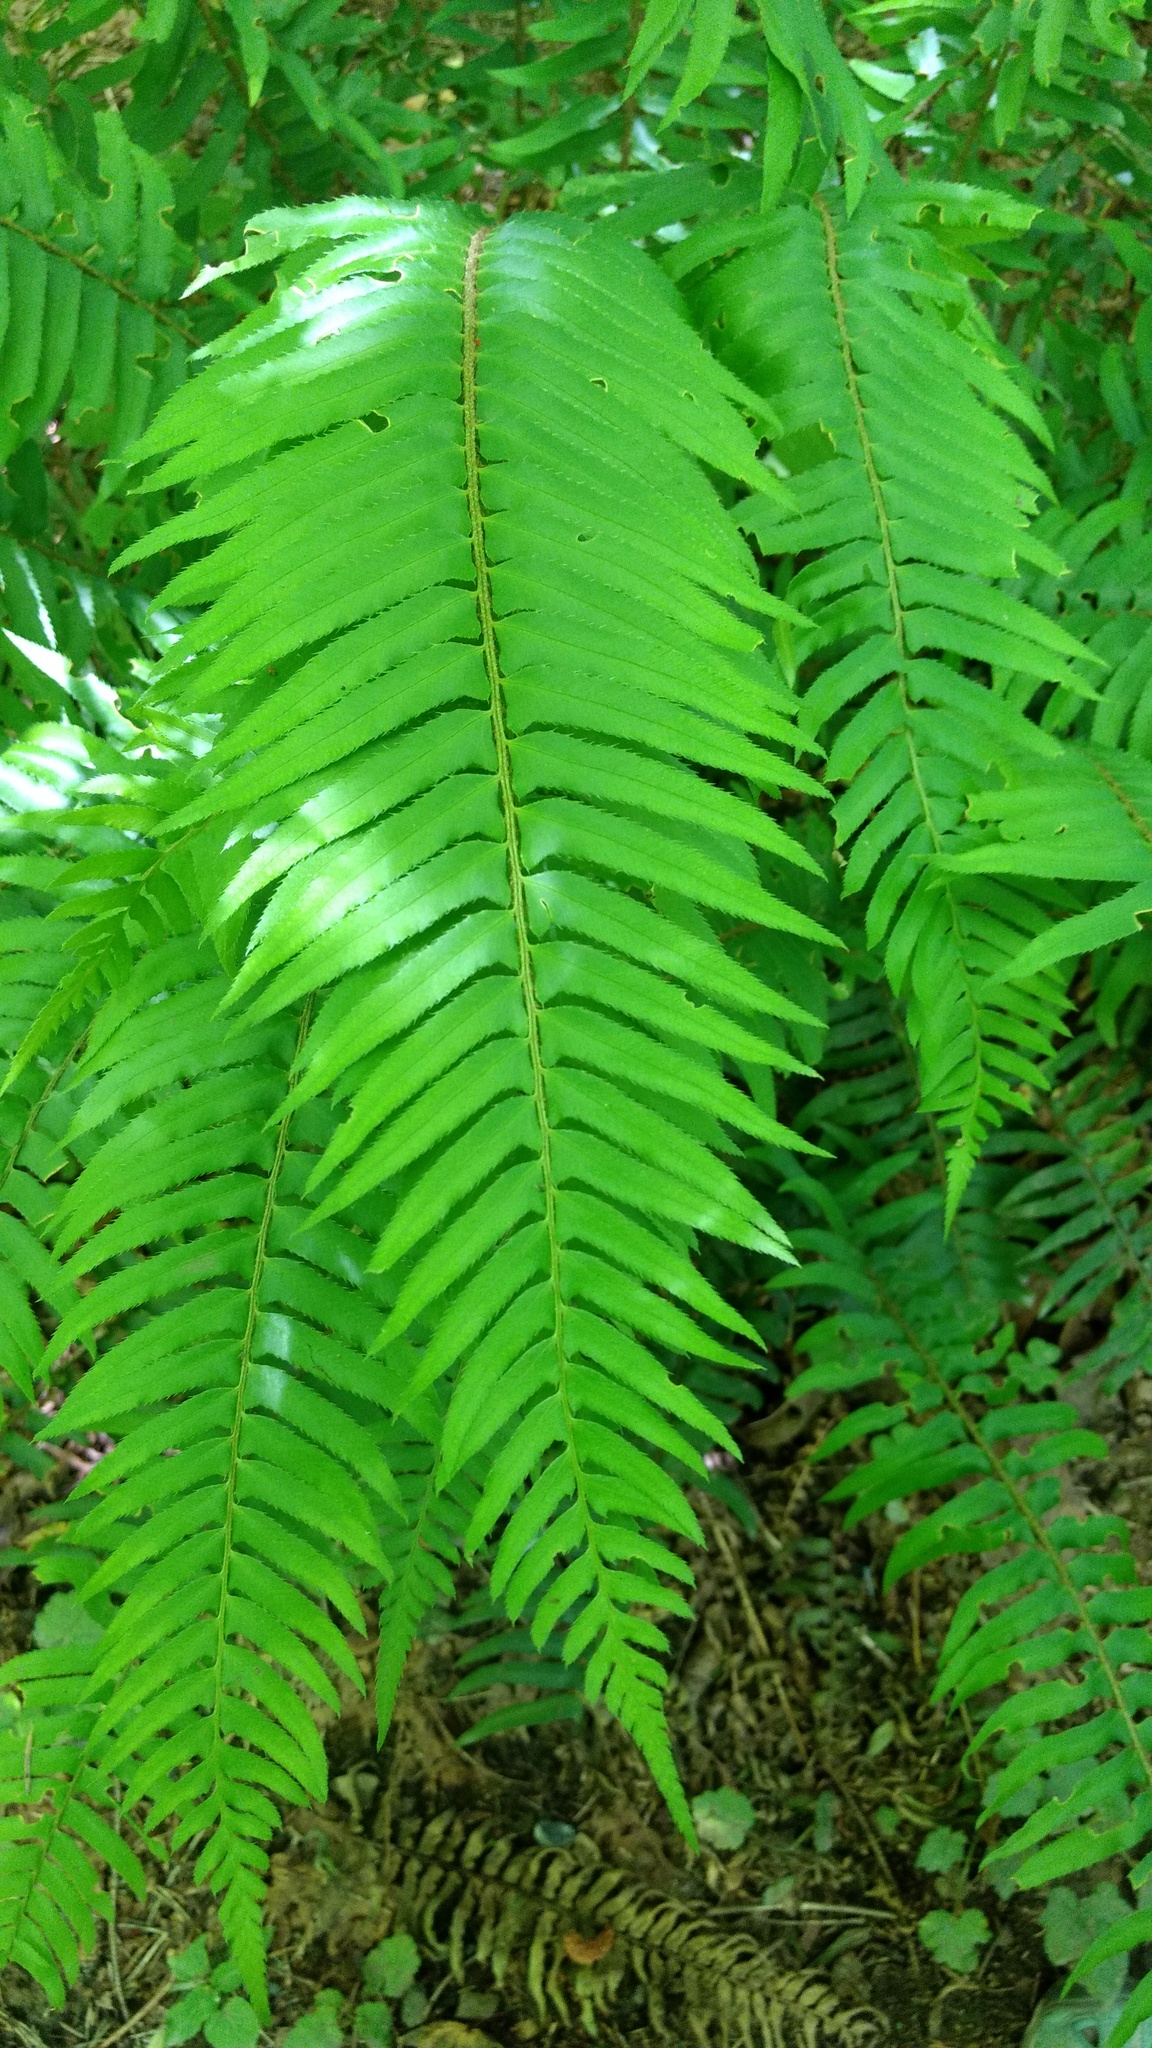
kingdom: Plantae
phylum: Tracheophyta
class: Polypodiopsida
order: Polypodiales
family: Dryopteridaceae
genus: Polystichum
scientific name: Polystichum munitum
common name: Western sword-fern
